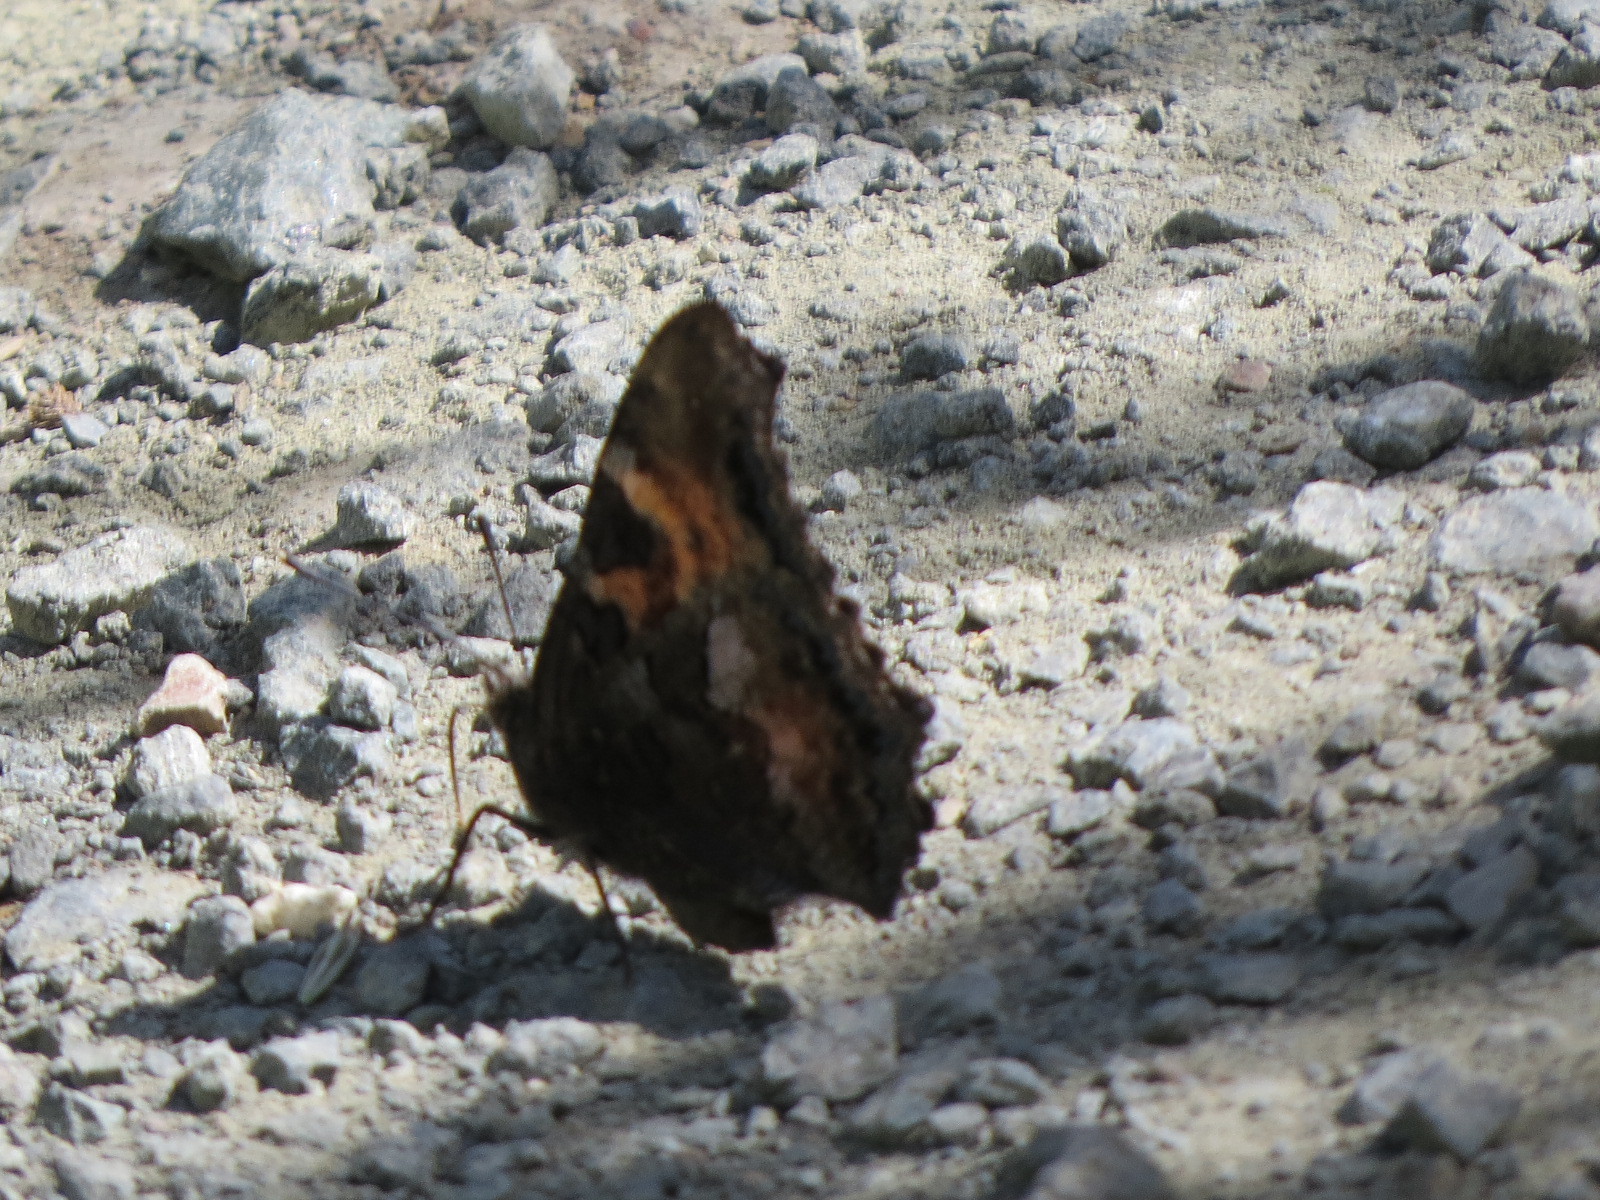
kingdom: Animalia
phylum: Arthropoda
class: Insecta
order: Lepidoptera
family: Nymphalidae
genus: Nymphalis
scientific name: Nymphalis californica
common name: California tortoiseshell
